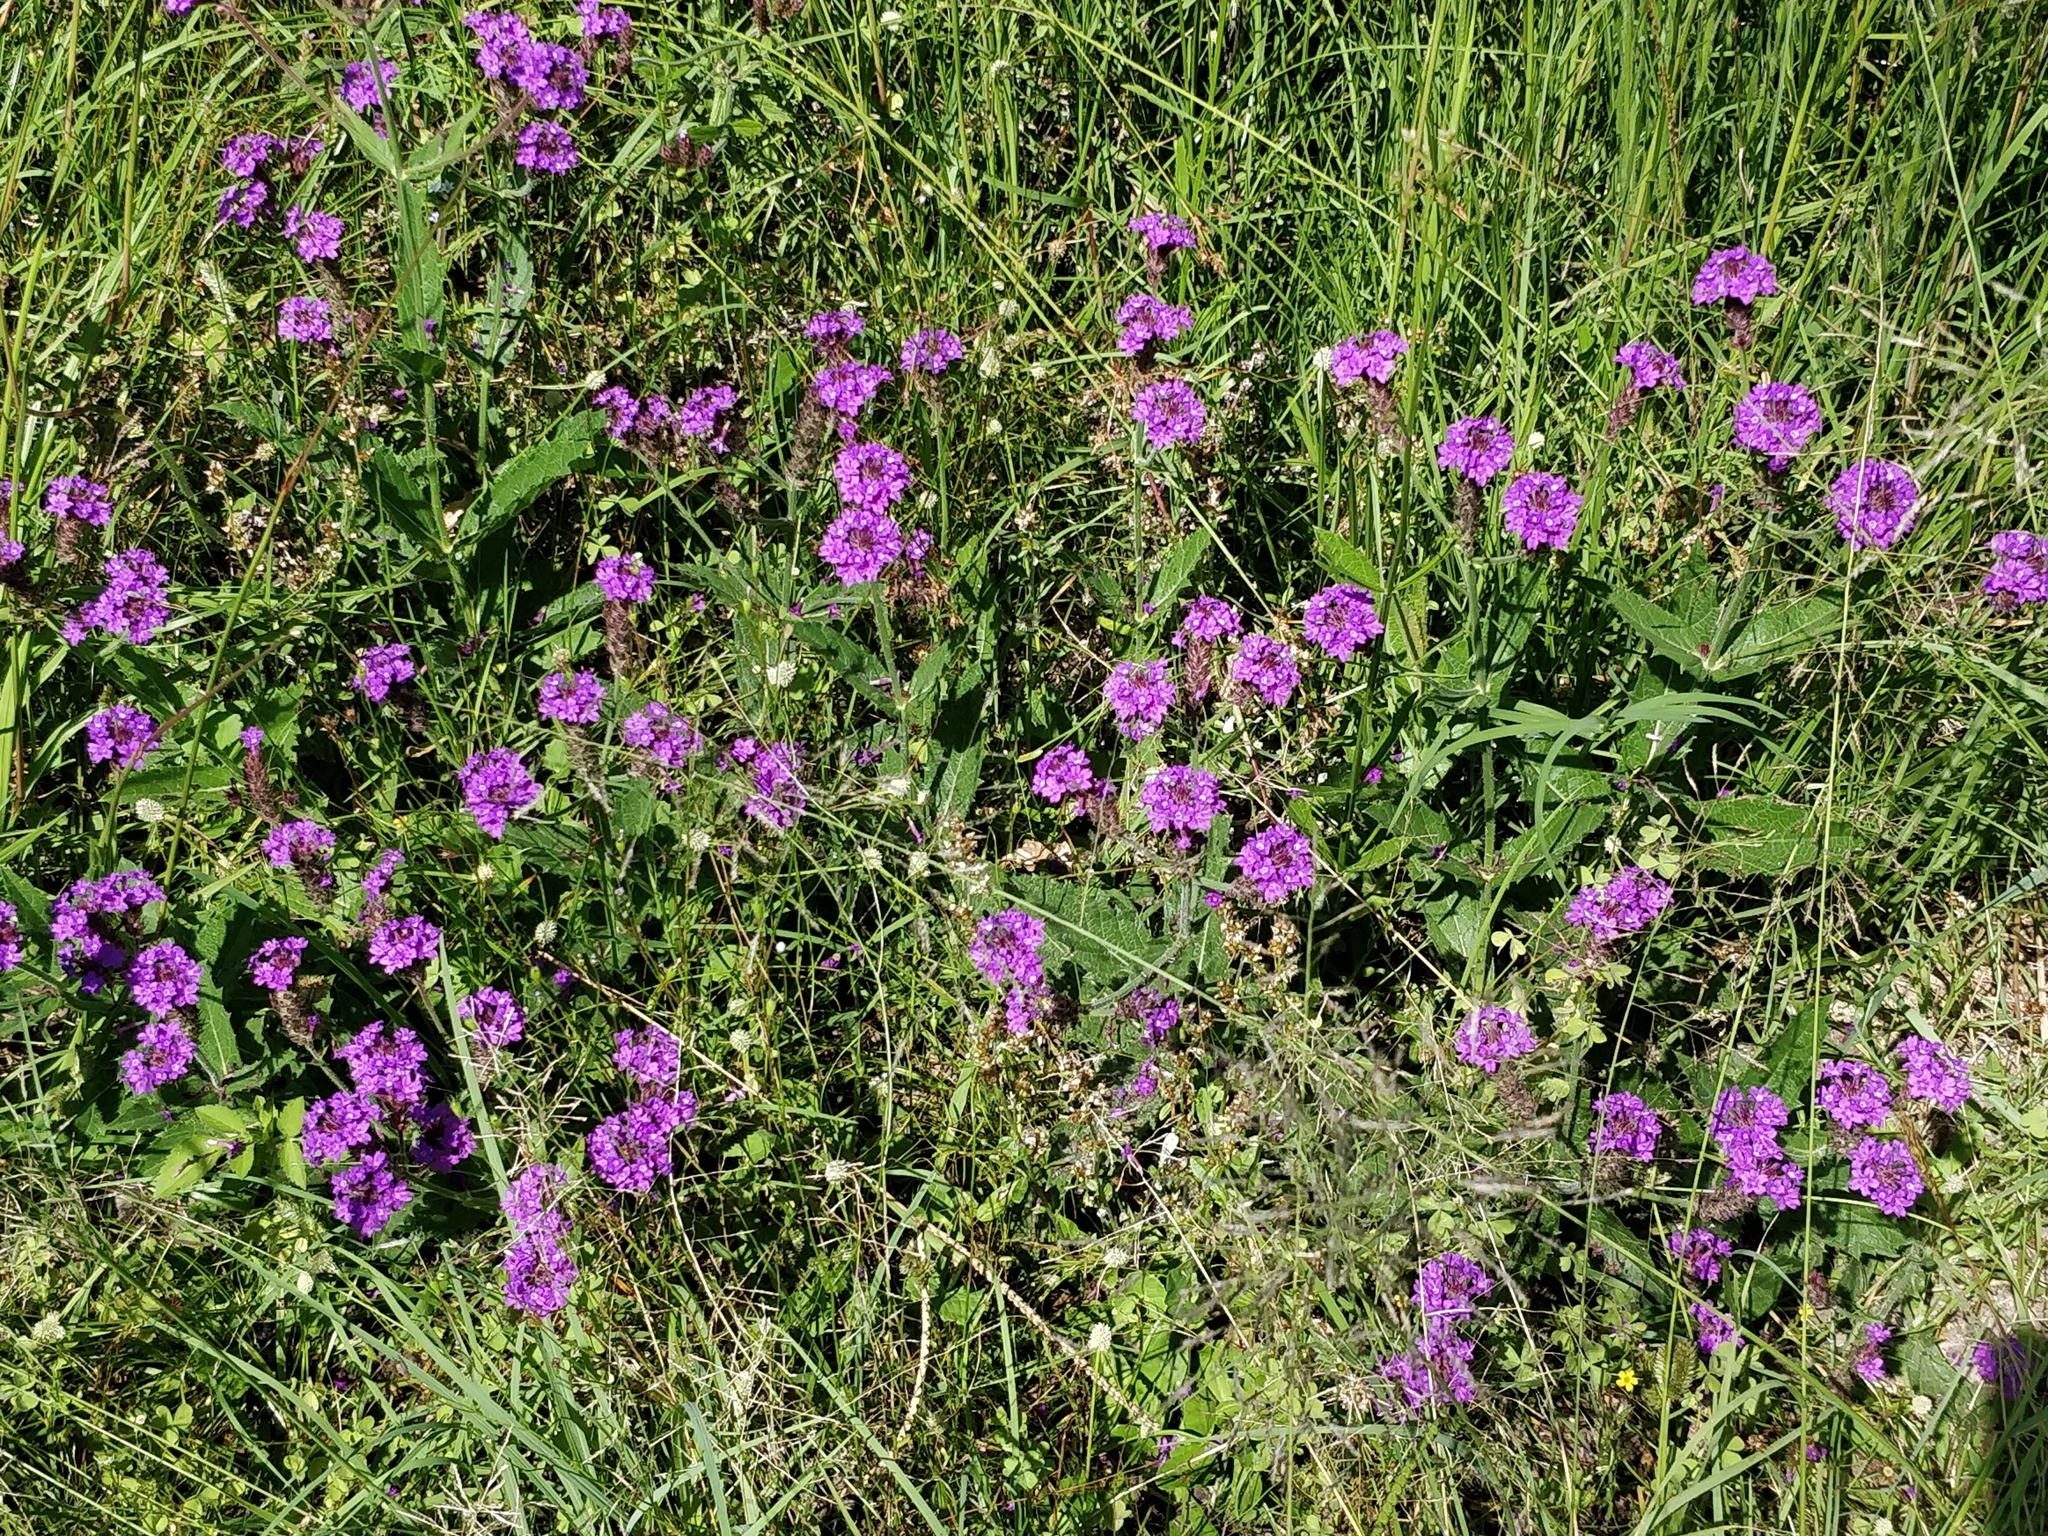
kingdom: Plantae
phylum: Tracheophyta
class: Magnoliopsida
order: Lamiales
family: Verbenaceae
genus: Verbena
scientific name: Verbena rigida
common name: Slender vervain
